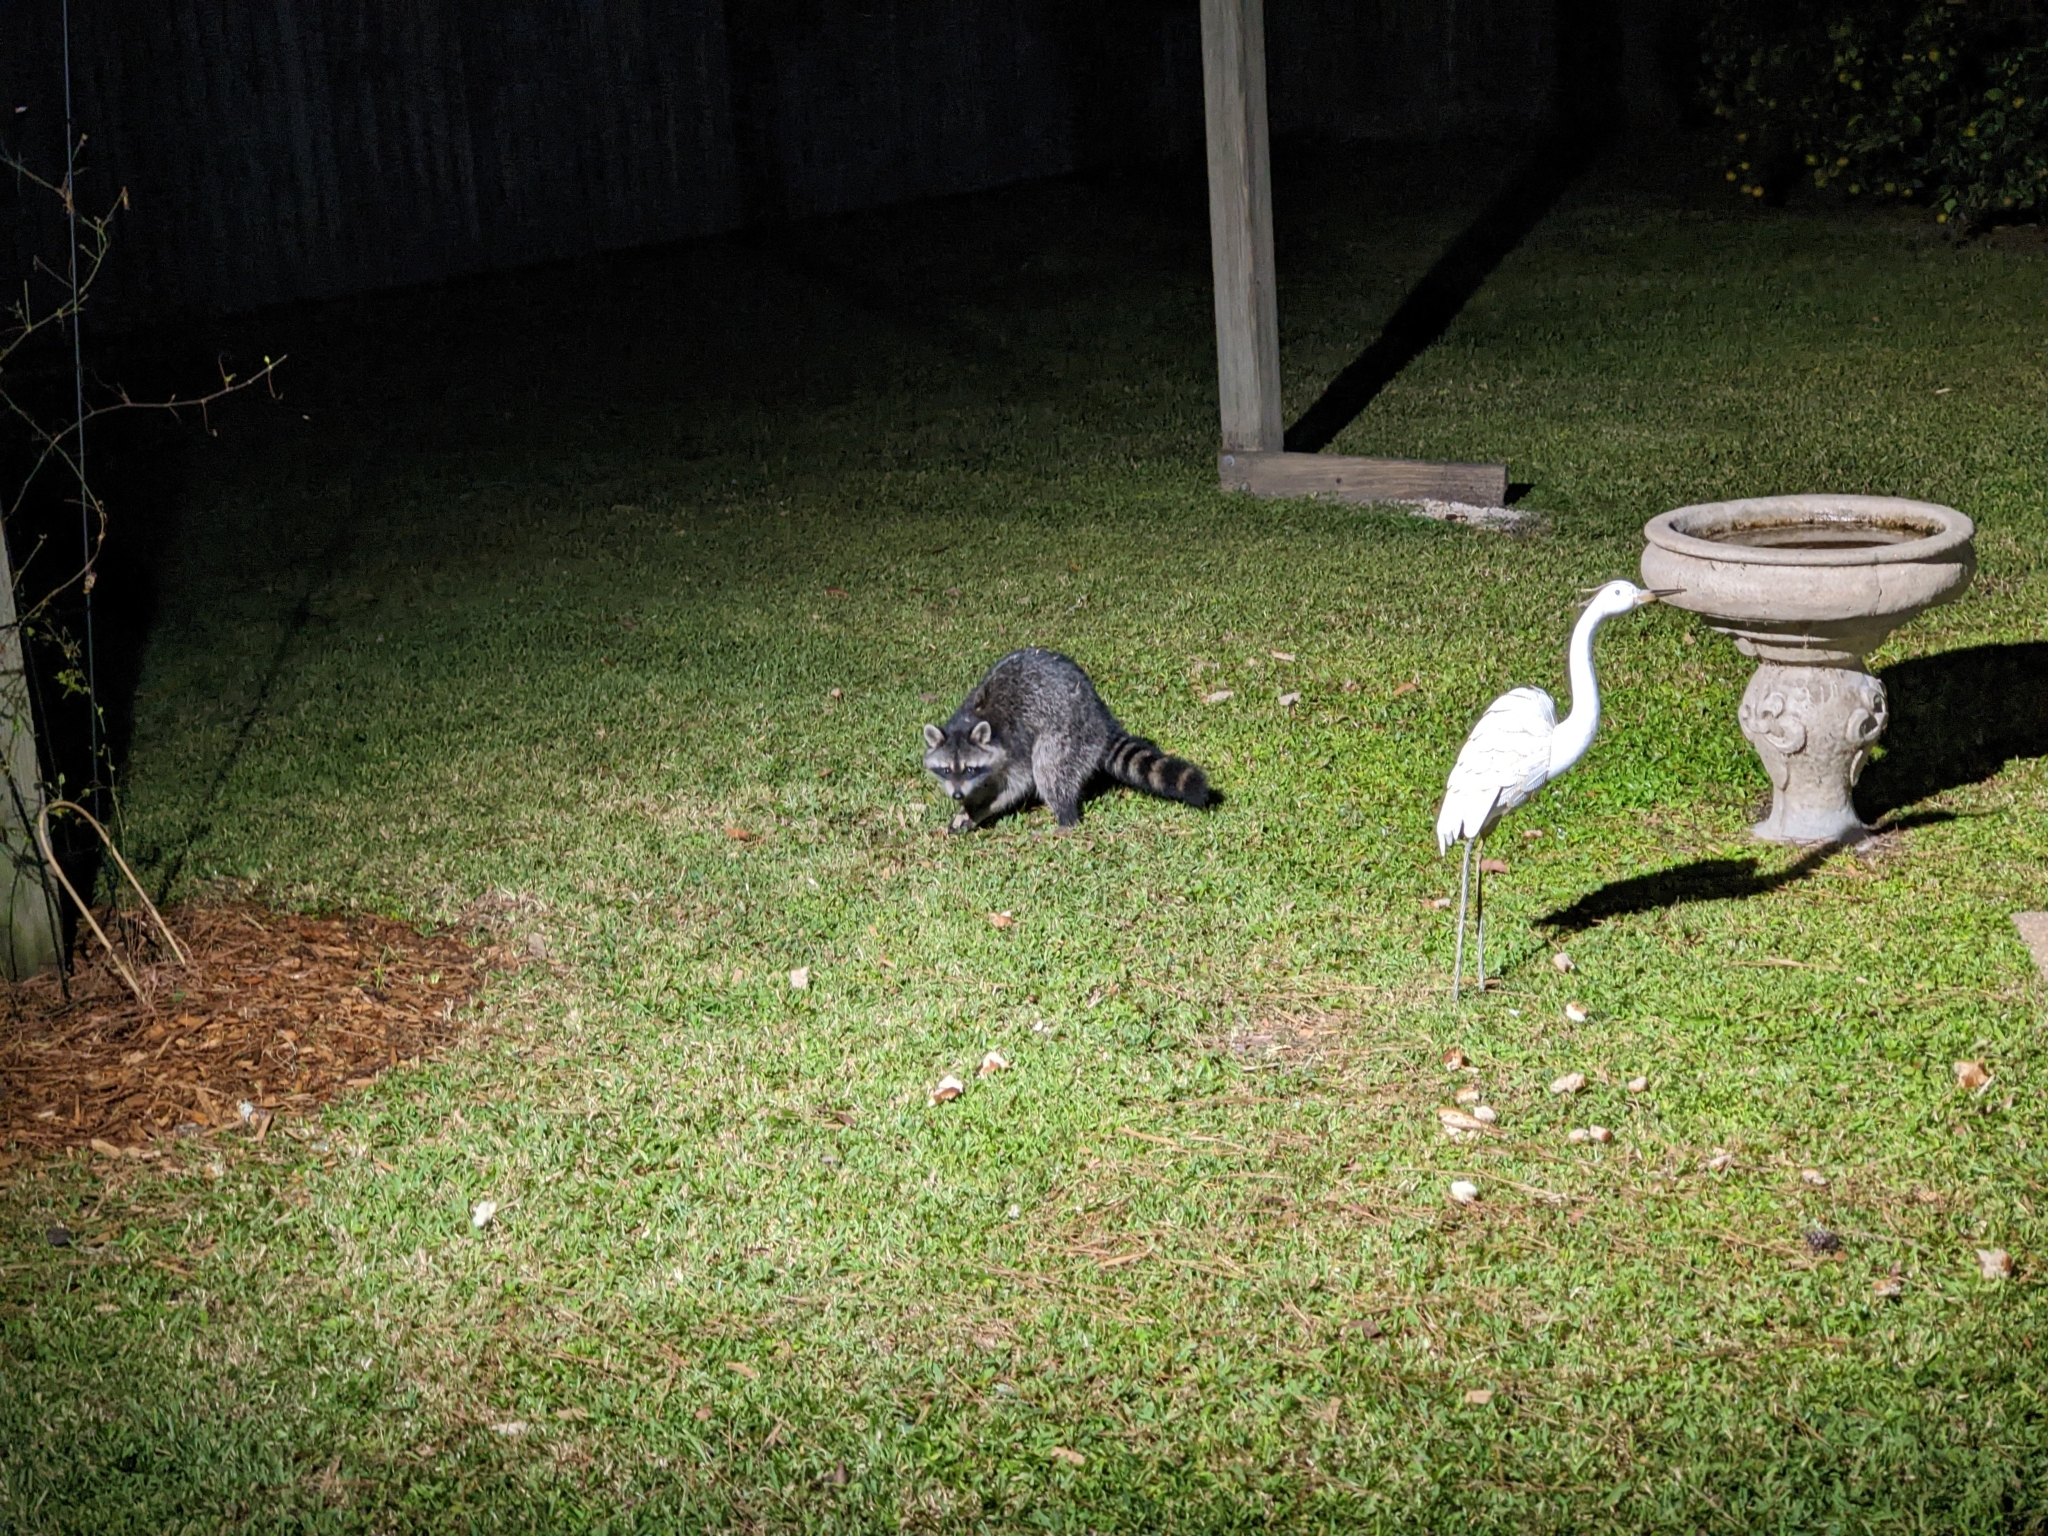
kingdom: Animalia
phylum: Chordata
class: Mammalia
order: Carnivora
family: Procyonidae
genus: Procyon
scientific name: Procyon lotor
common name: Raccoon
